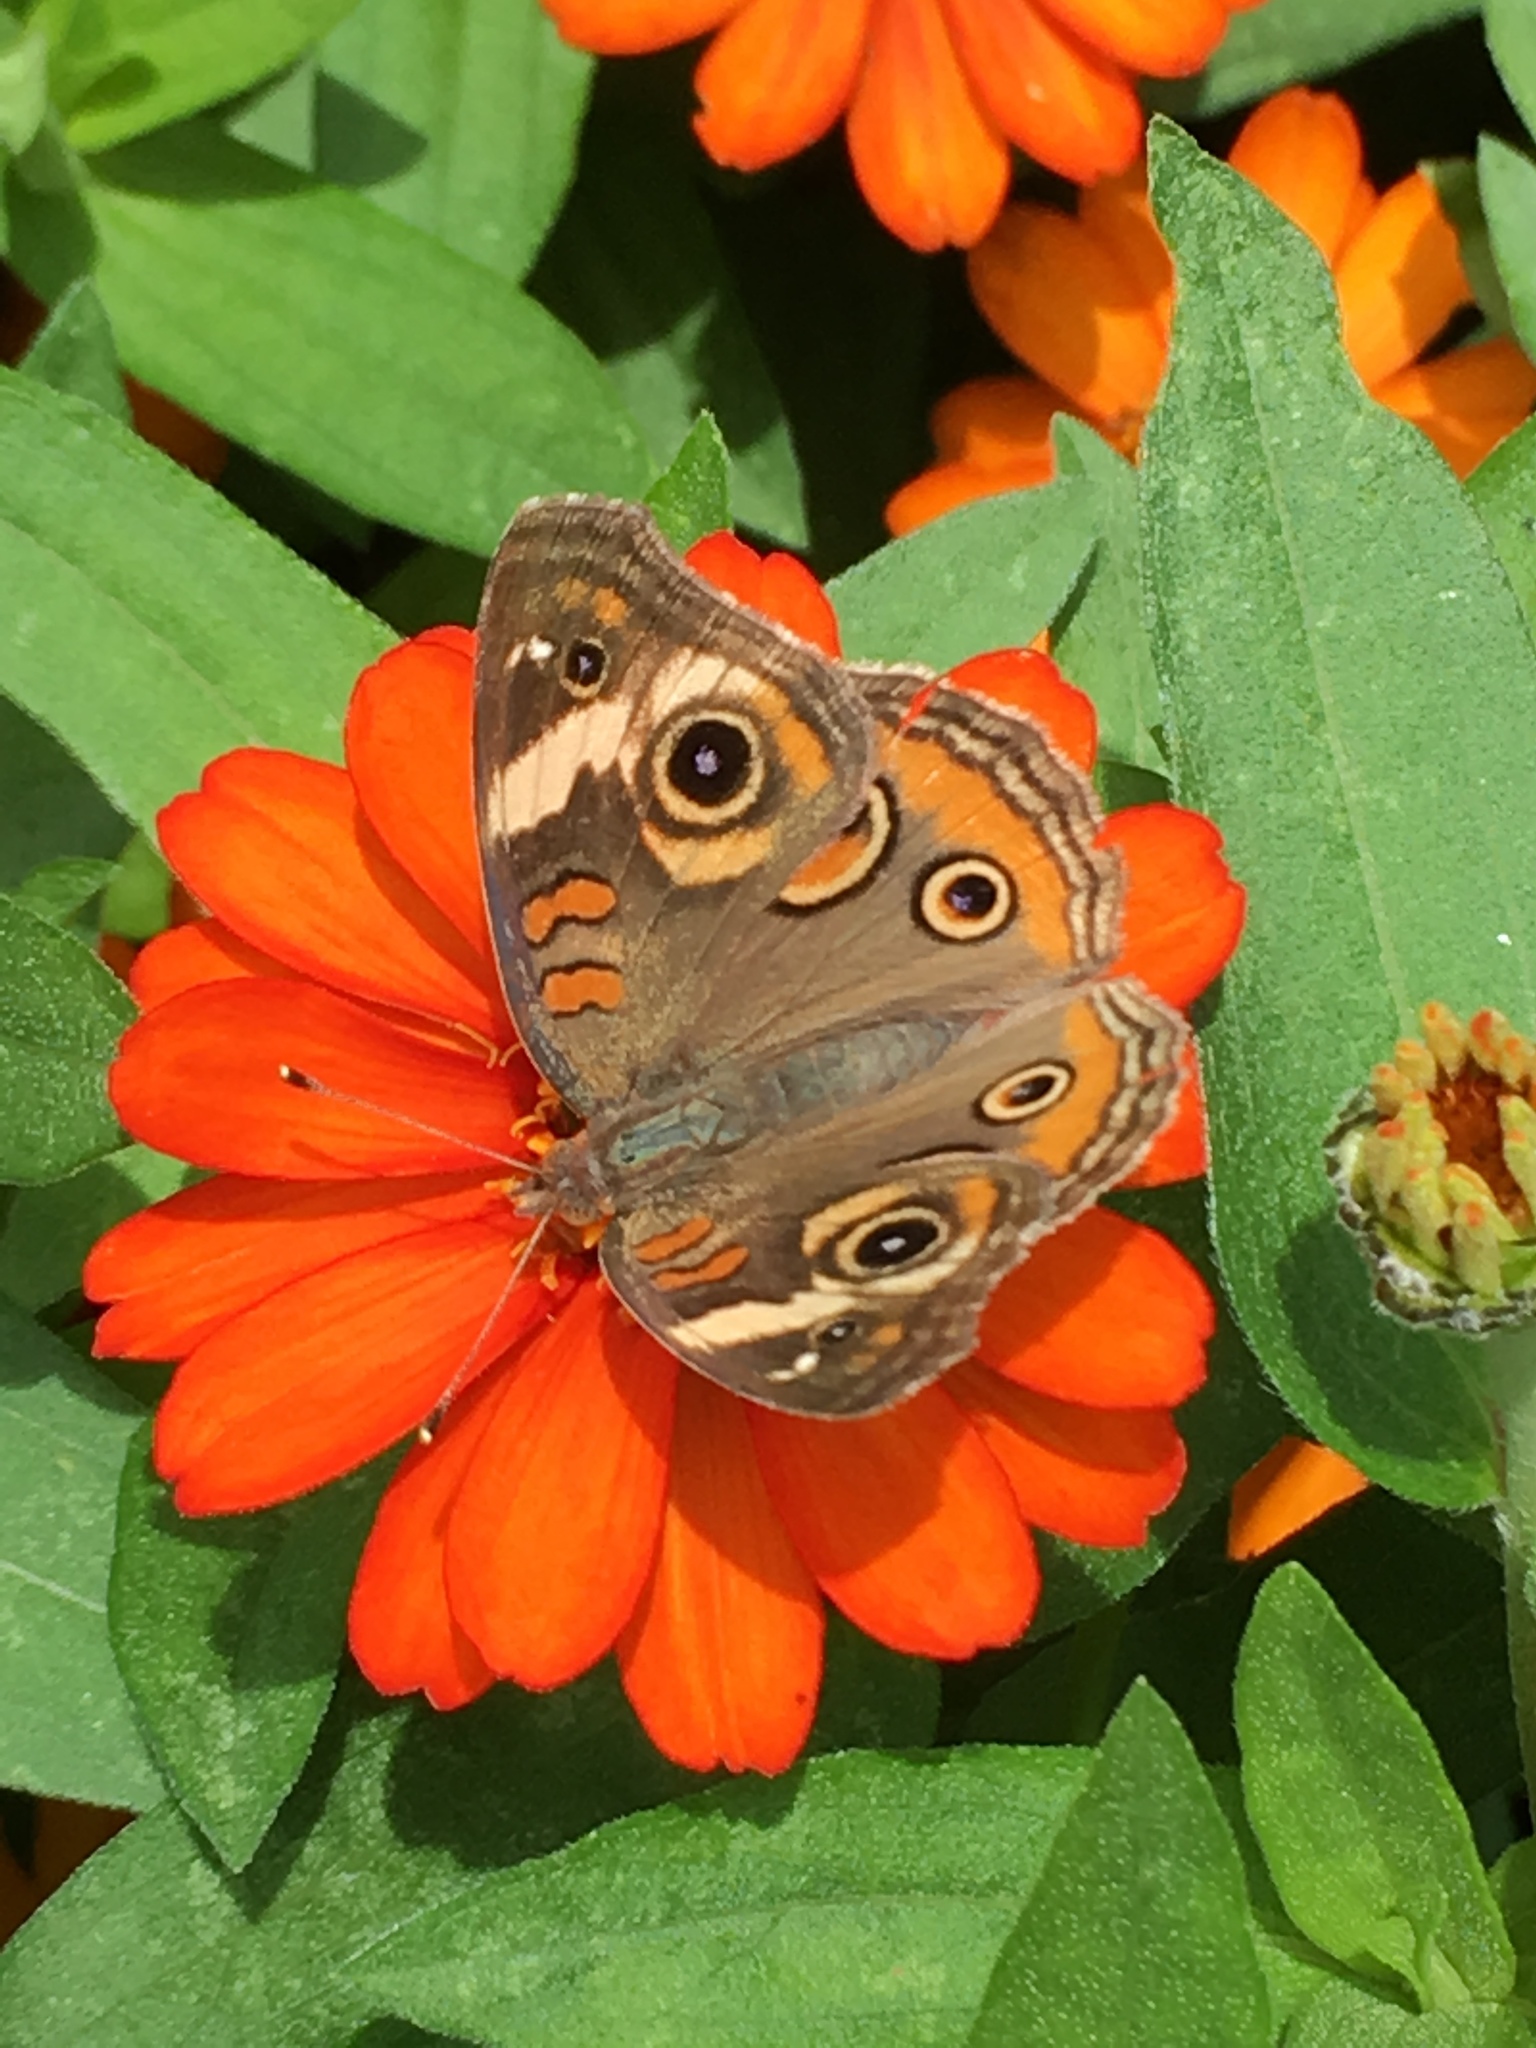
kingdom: Animalia
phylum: Arthropoda
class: Insecta
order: Lepidoptera
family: Nymphalidae
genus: Junonia
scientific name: Junonia coenia
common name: Common buckeye
